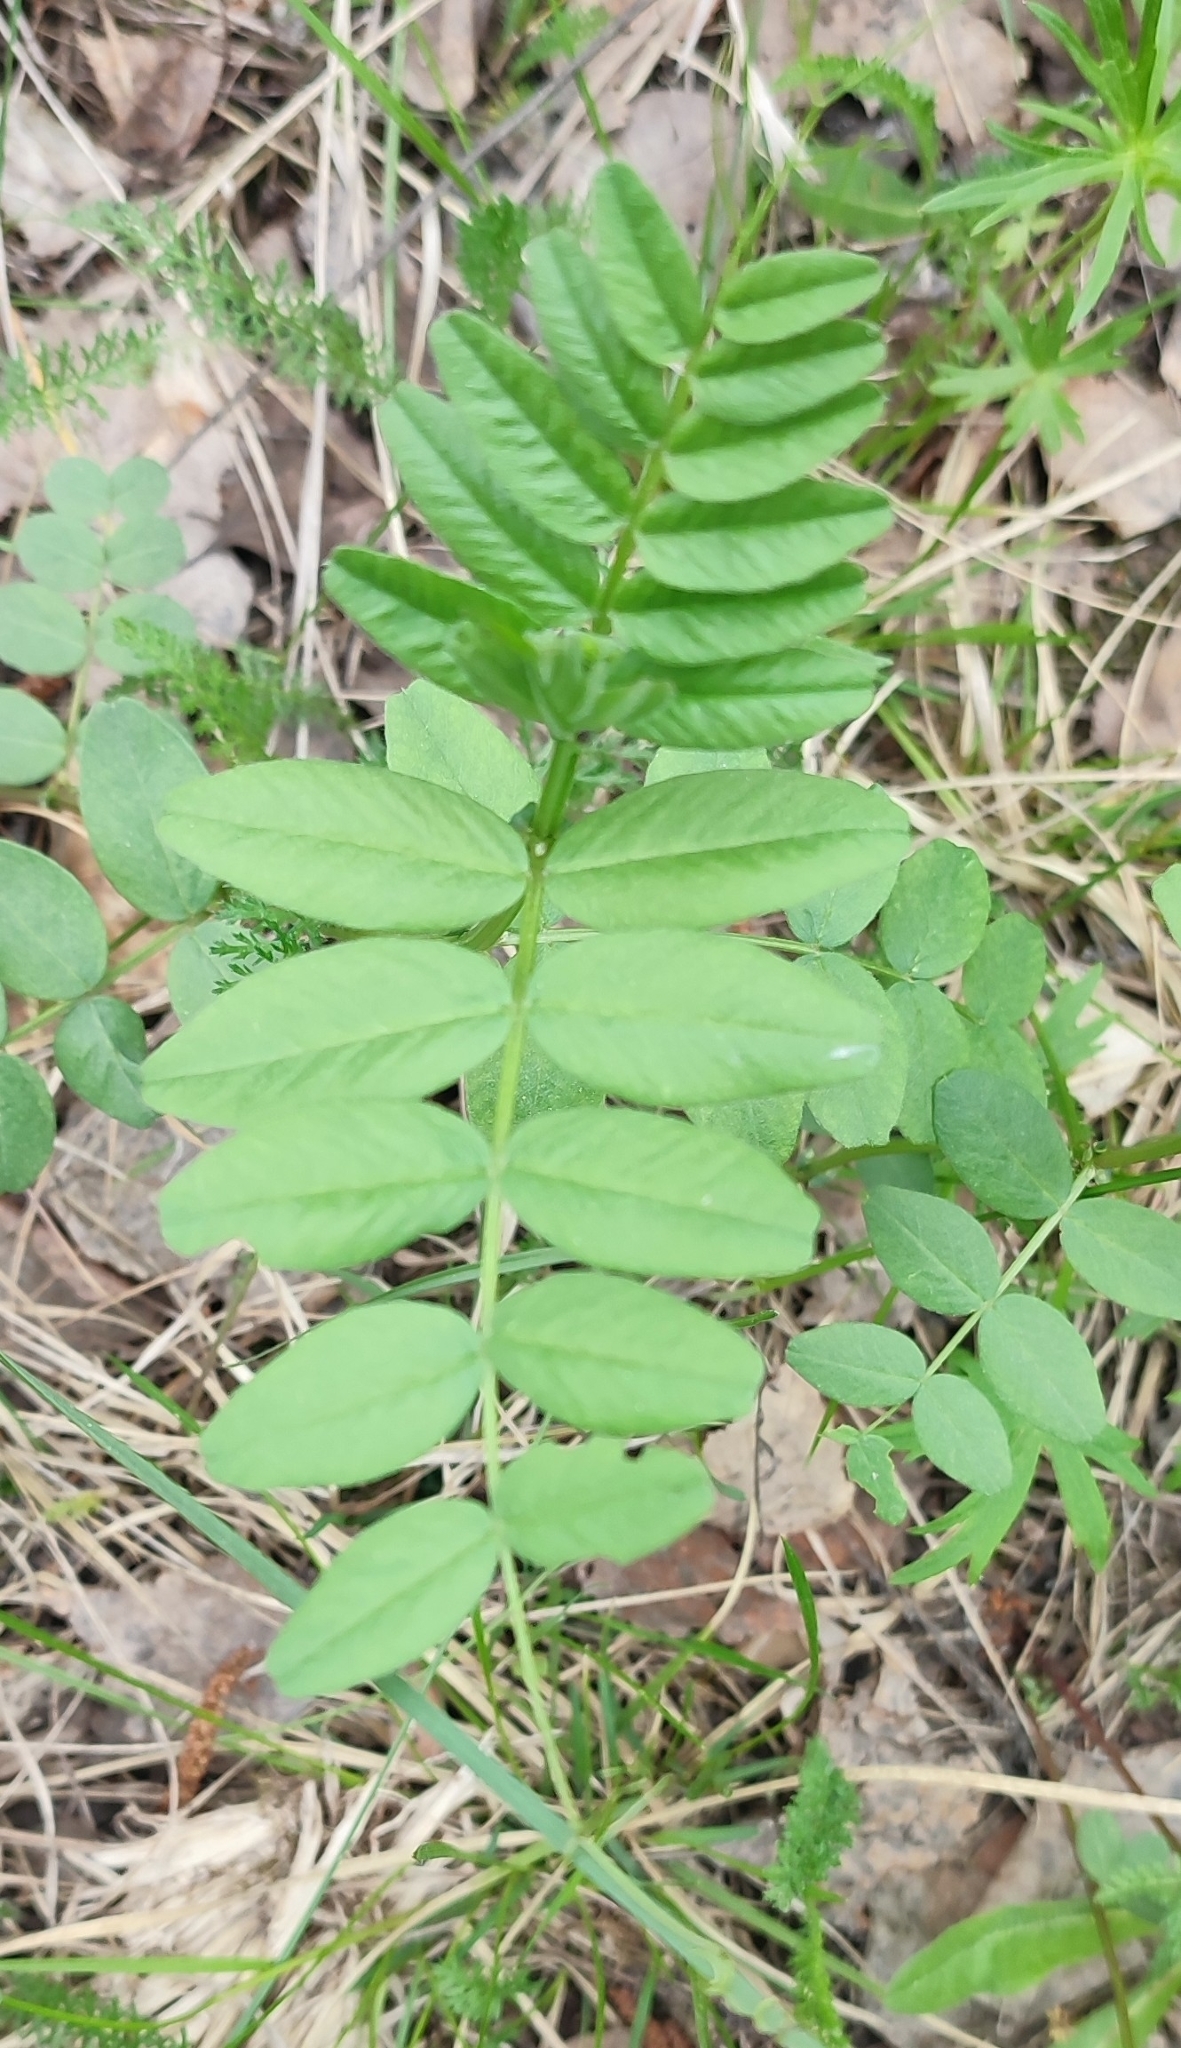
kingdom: Plantae
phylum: Tracheophyta
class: Magnoliopsida
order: Fabales
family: Fabaceae
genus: Vicia
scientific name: Vicia sepium
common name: Bush vetch
